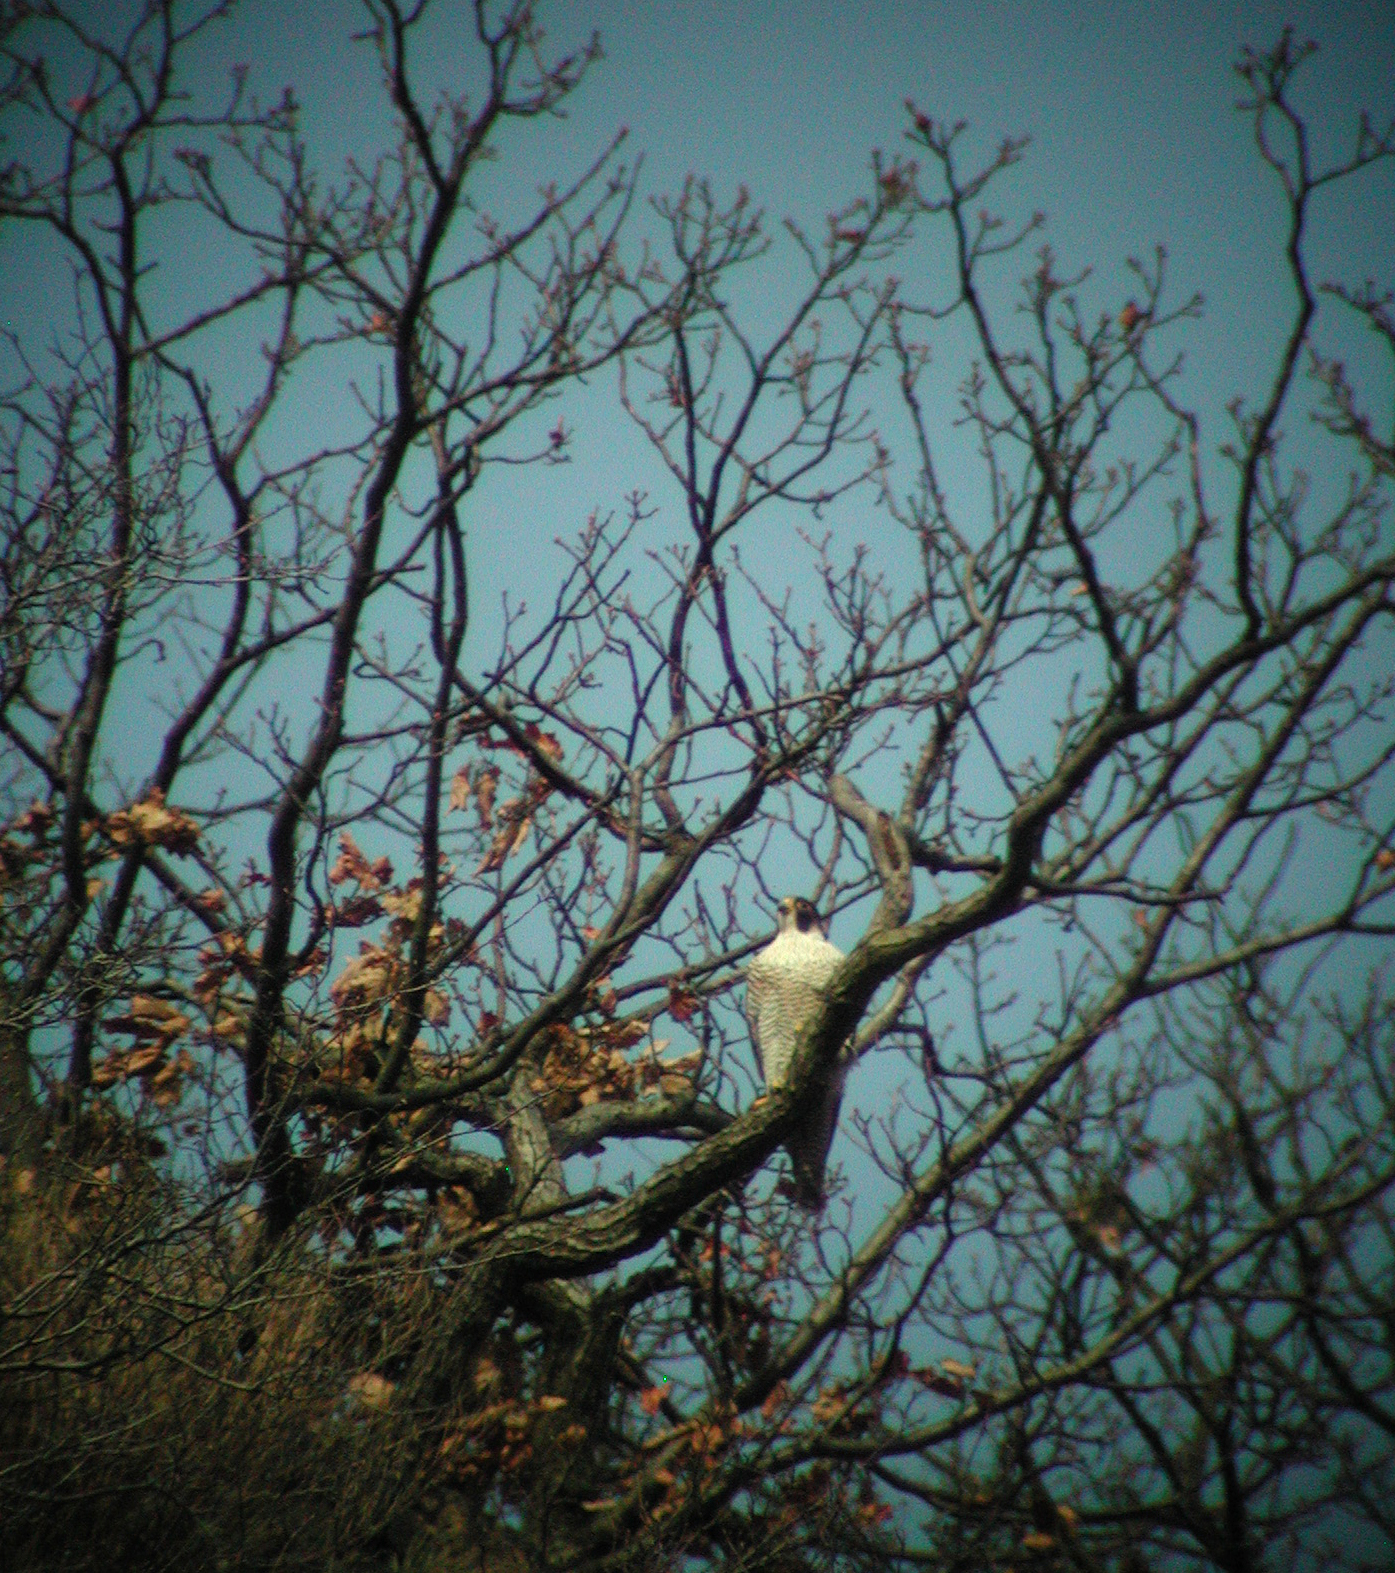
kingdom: Animalia
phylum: Chordata
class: Aves
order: Falconiformes
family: Falconidae
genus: Falco
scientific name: Falco peregrinus
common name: Peregrine falcon
